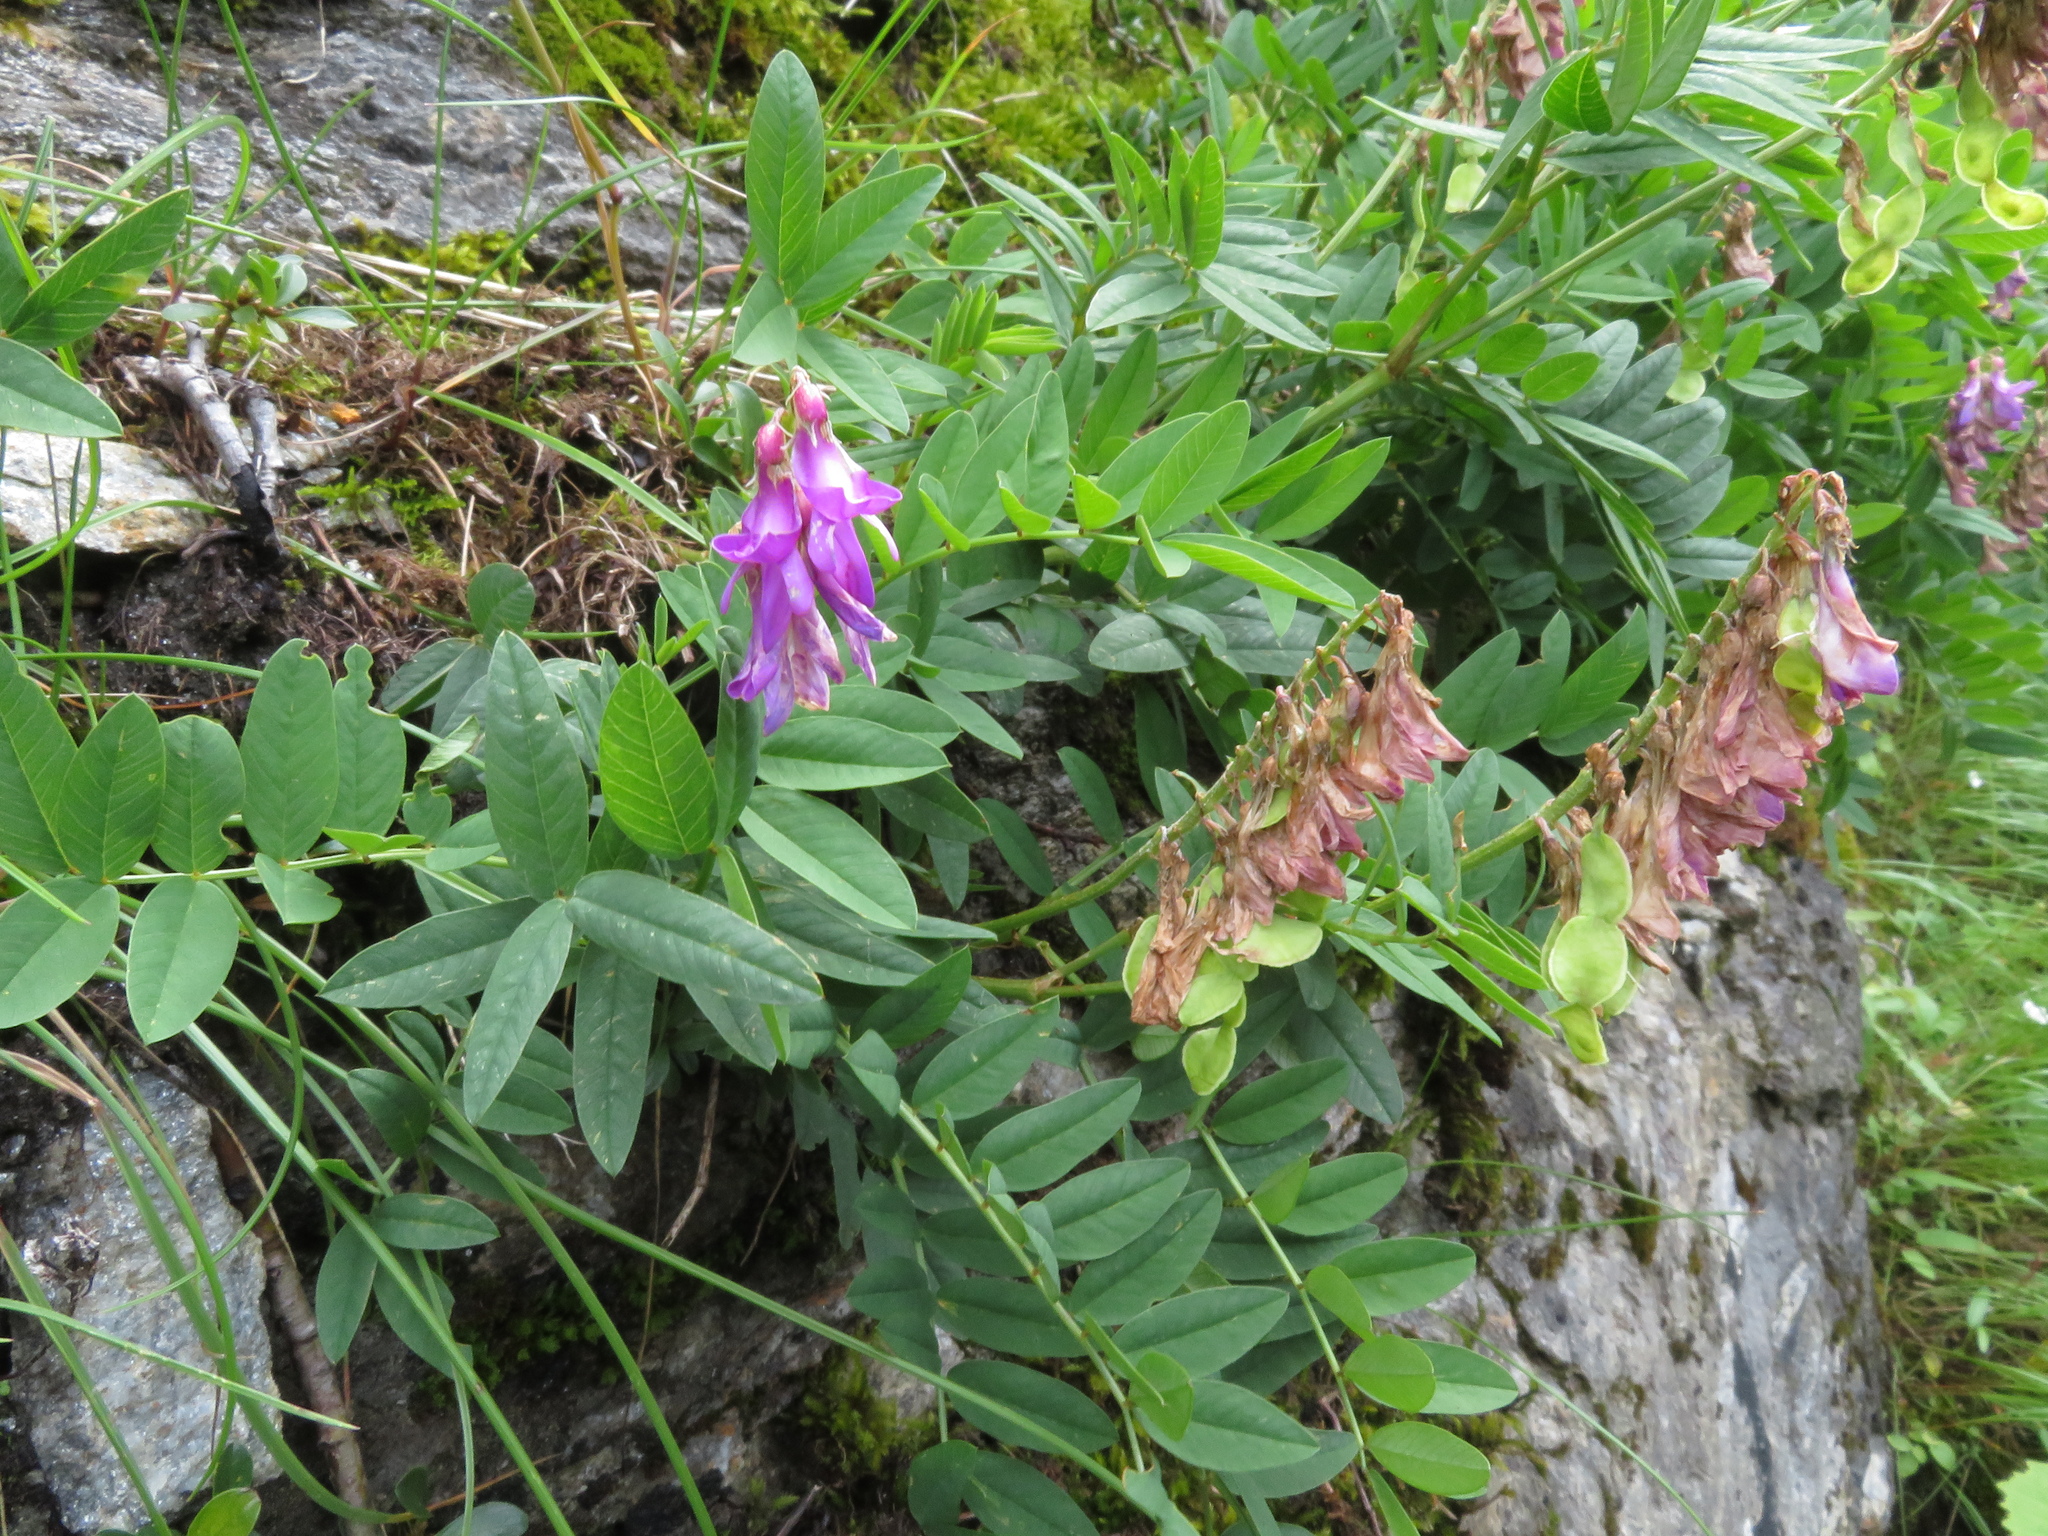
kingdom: Plantae
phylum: Tracheophyta
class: Magnoliopsida
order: Fabales
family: Fabaceae
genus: Hedysarum
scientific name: Hedysarum hedysaroides
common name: Alpine french-honeysuckle
